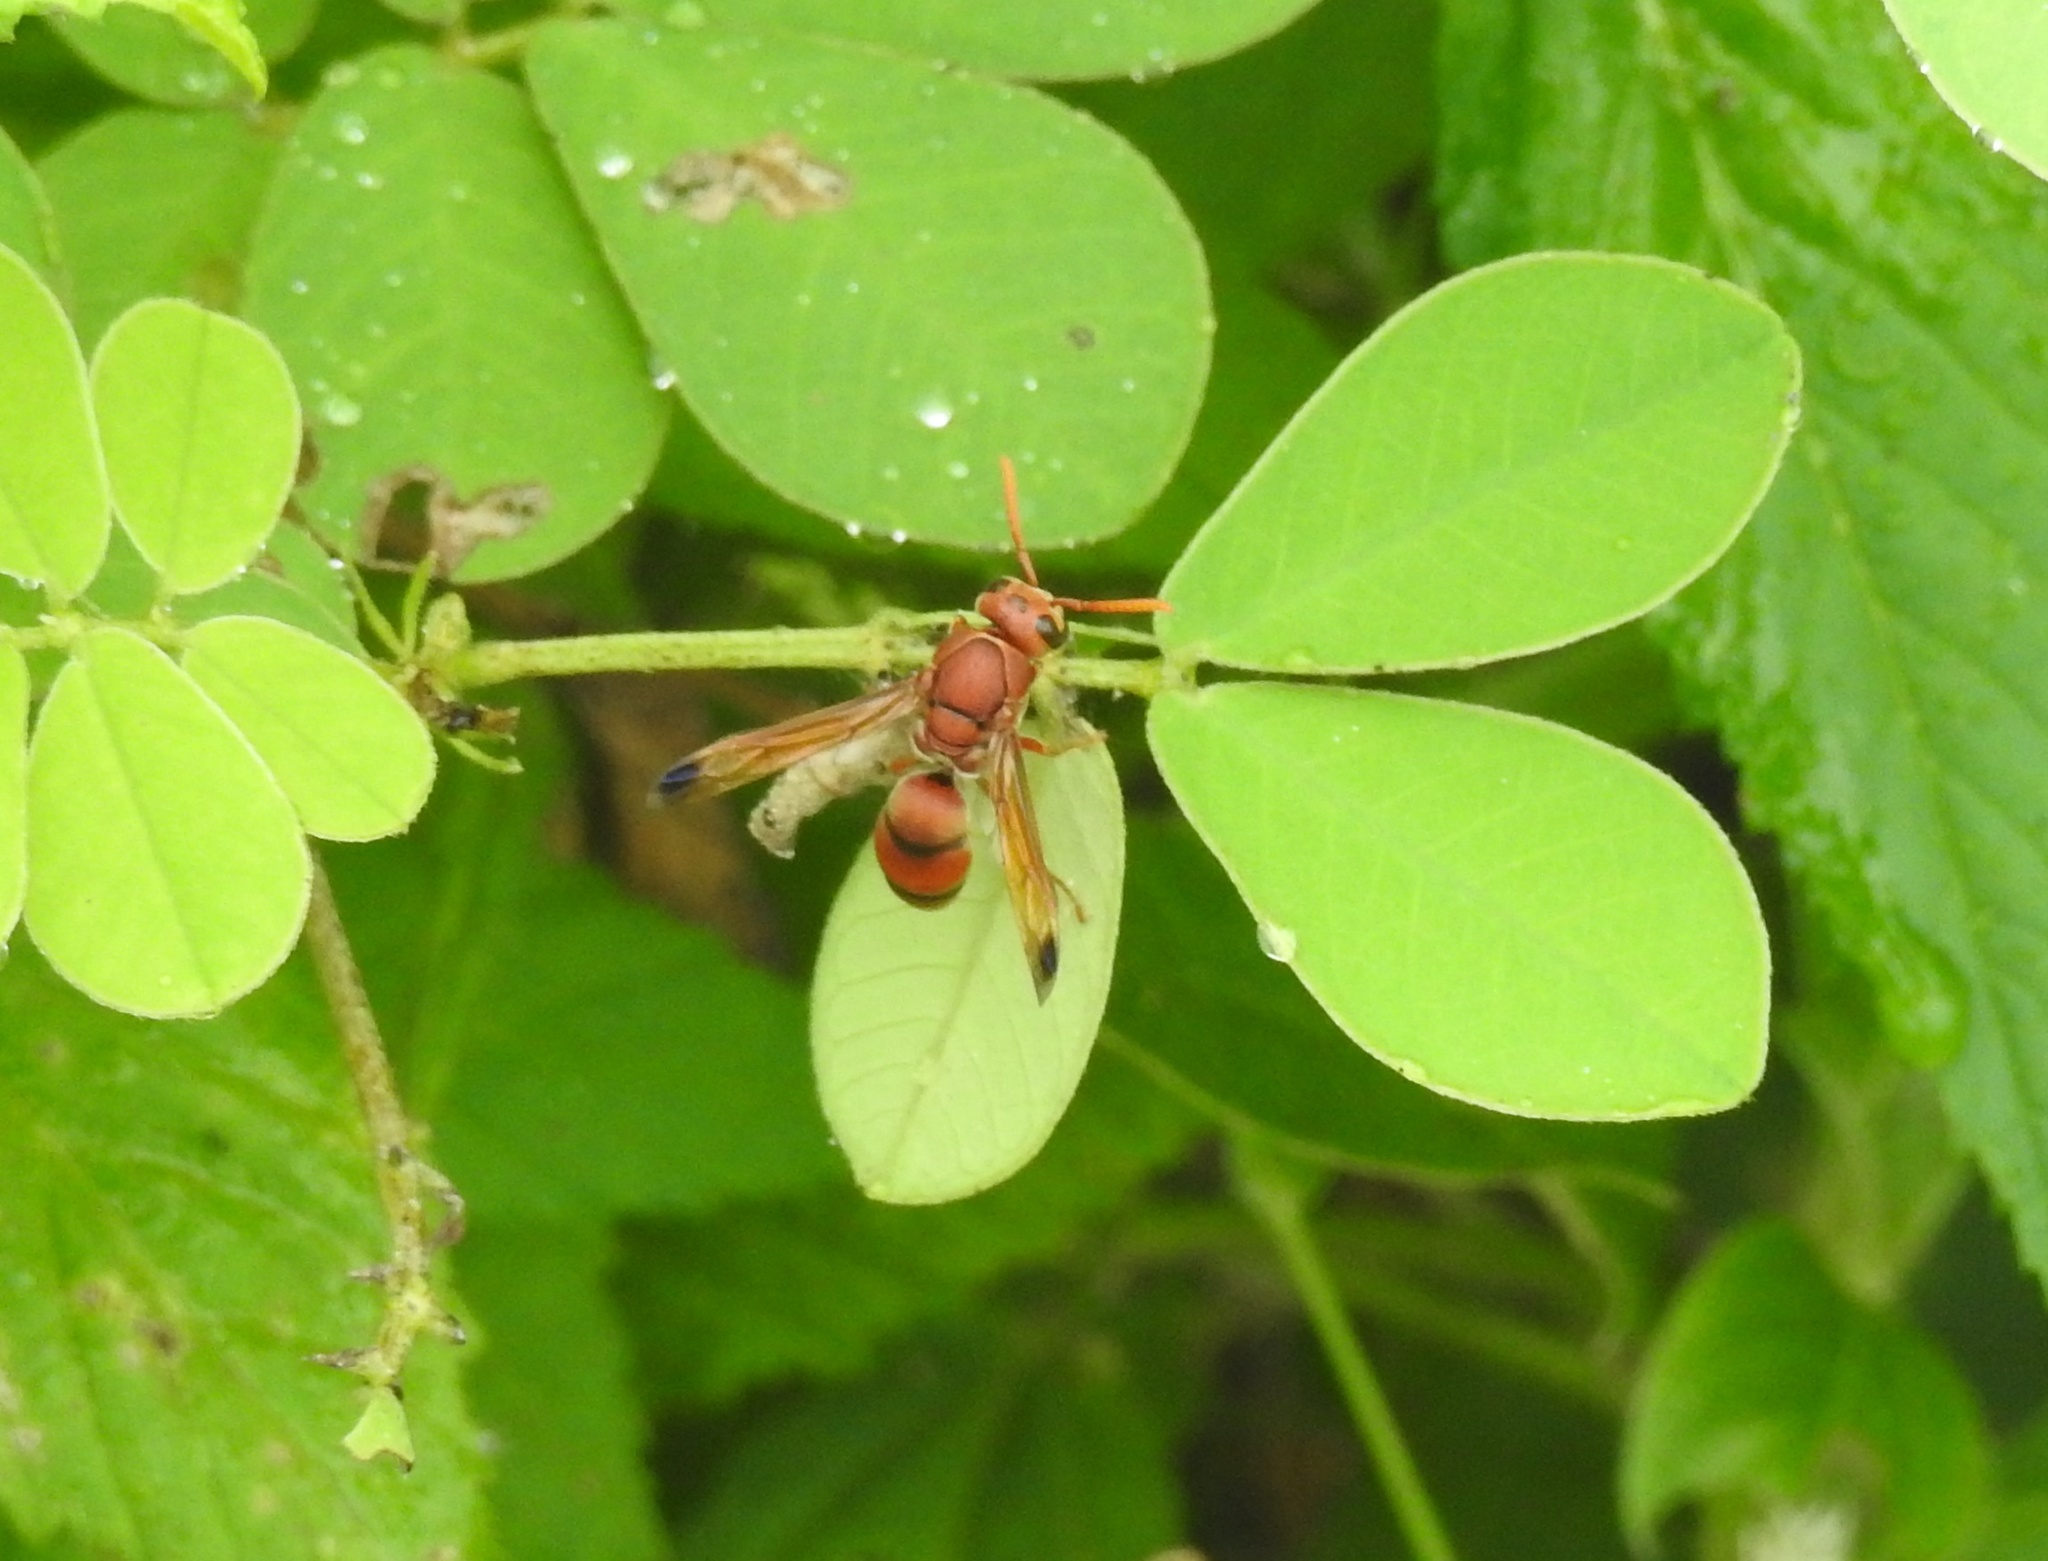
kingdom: Animalia
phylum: Arthropoda
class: Insecta
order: Hymenoptera
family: Eumenidae
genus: Antodynerus
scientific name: Antodynerus limbatus
